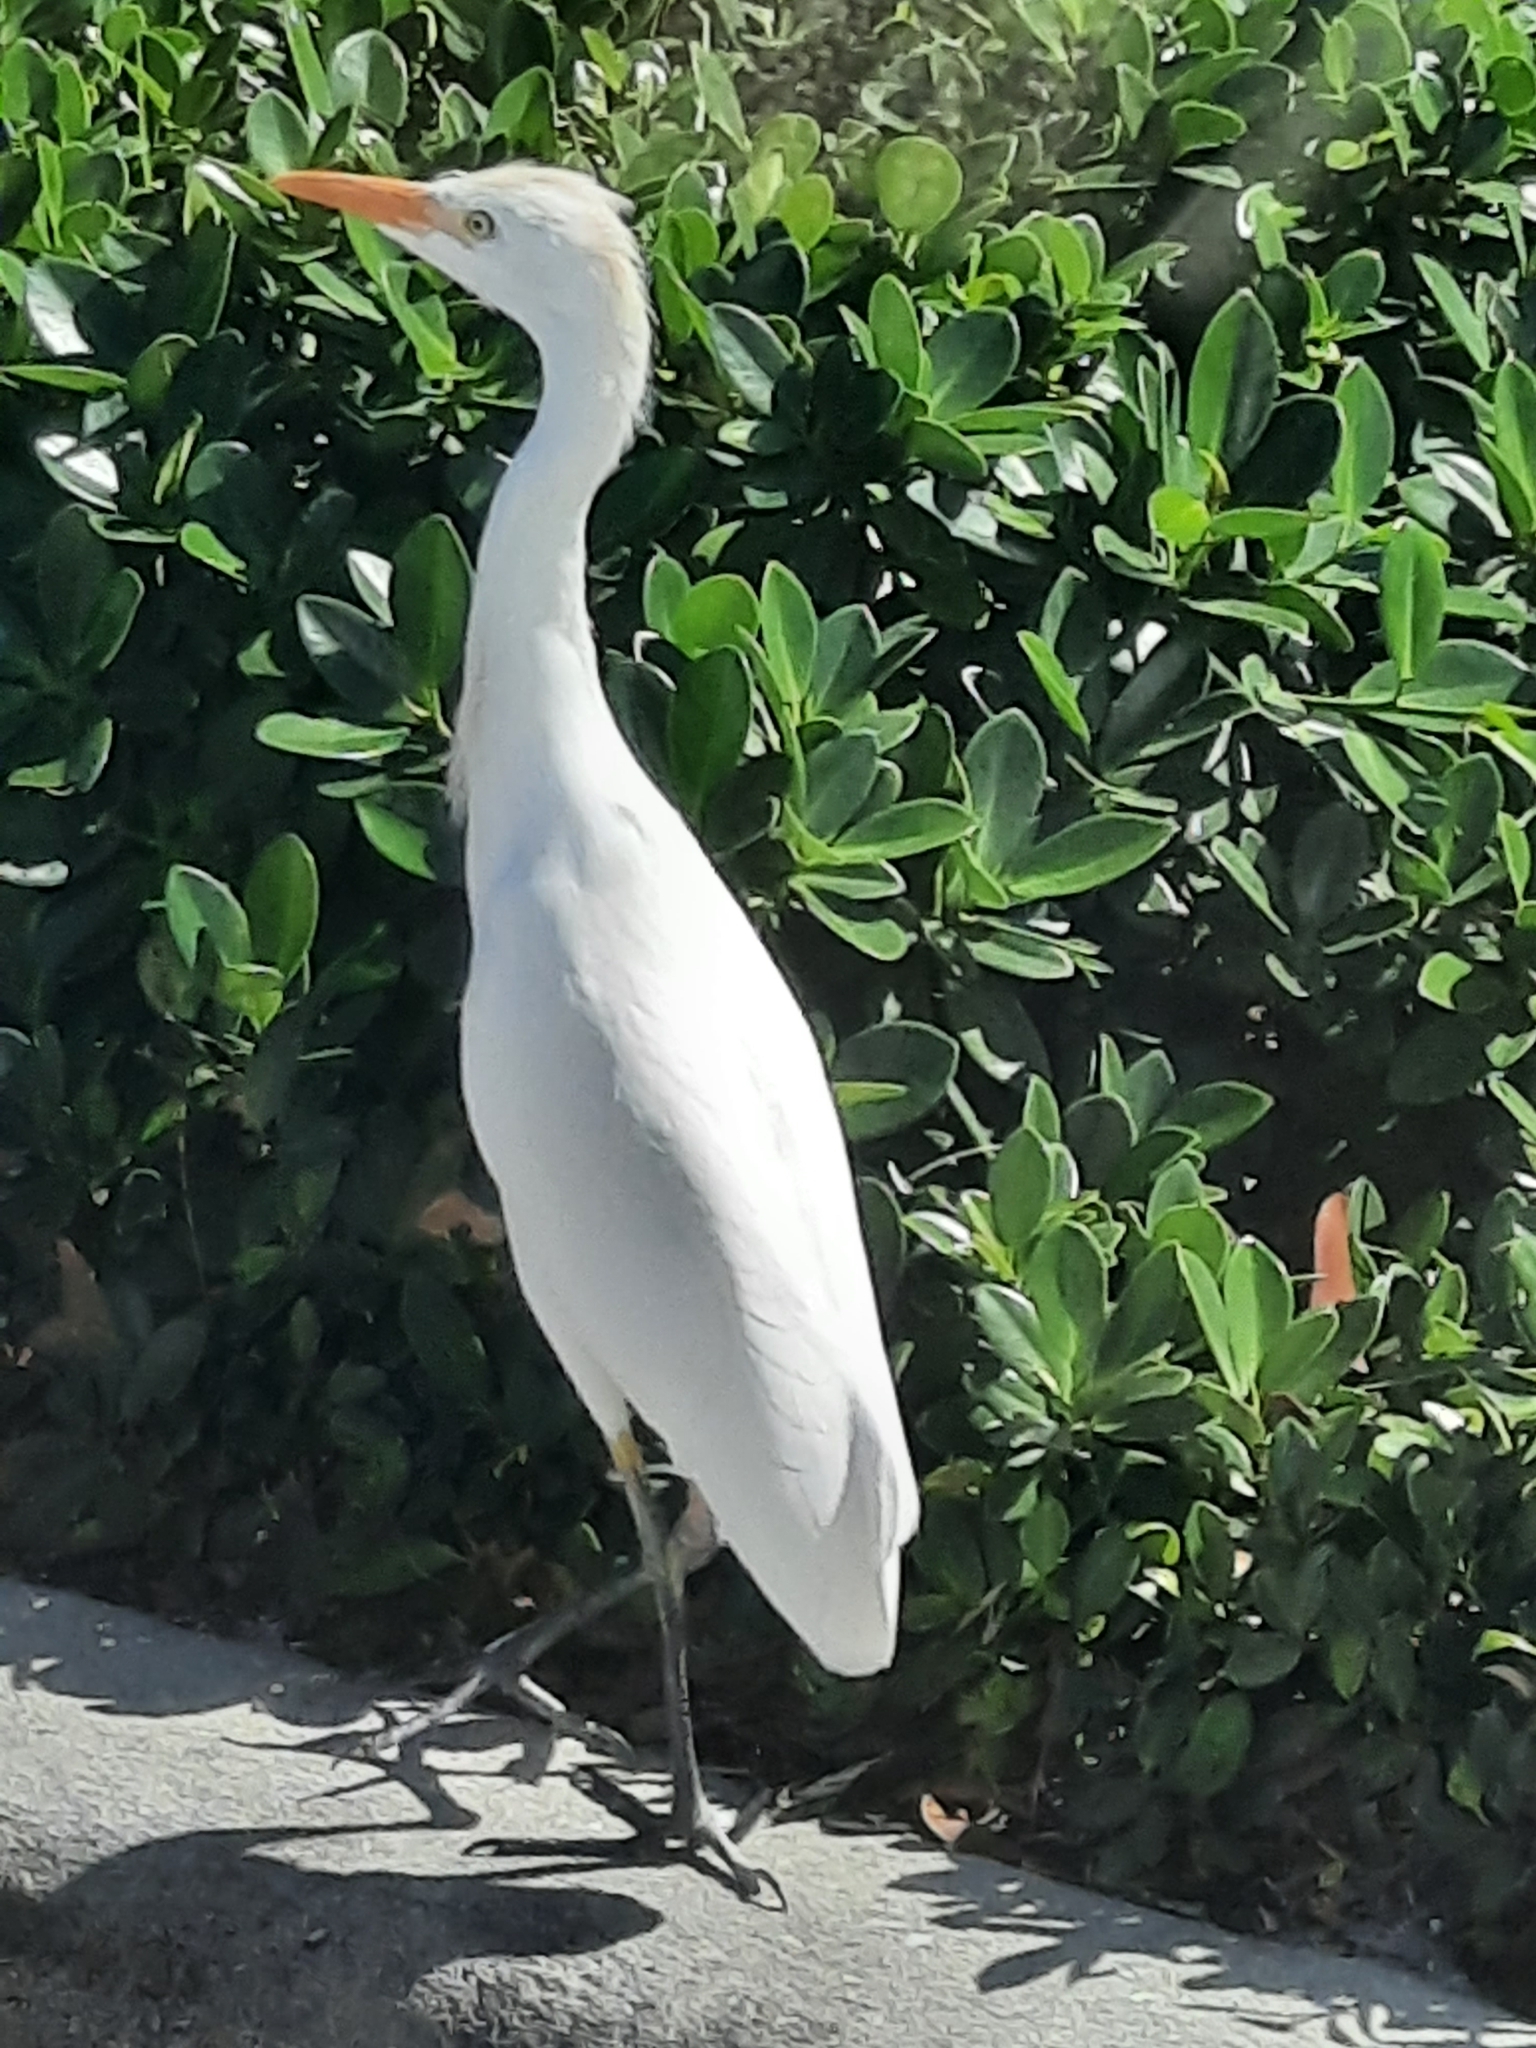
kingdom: Animalia
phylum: Chordata
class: Aves
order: Pelecaniformes
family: Ardeidae
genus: Bubulcus
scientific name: Bubulcus ibis
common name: Cattle egret
